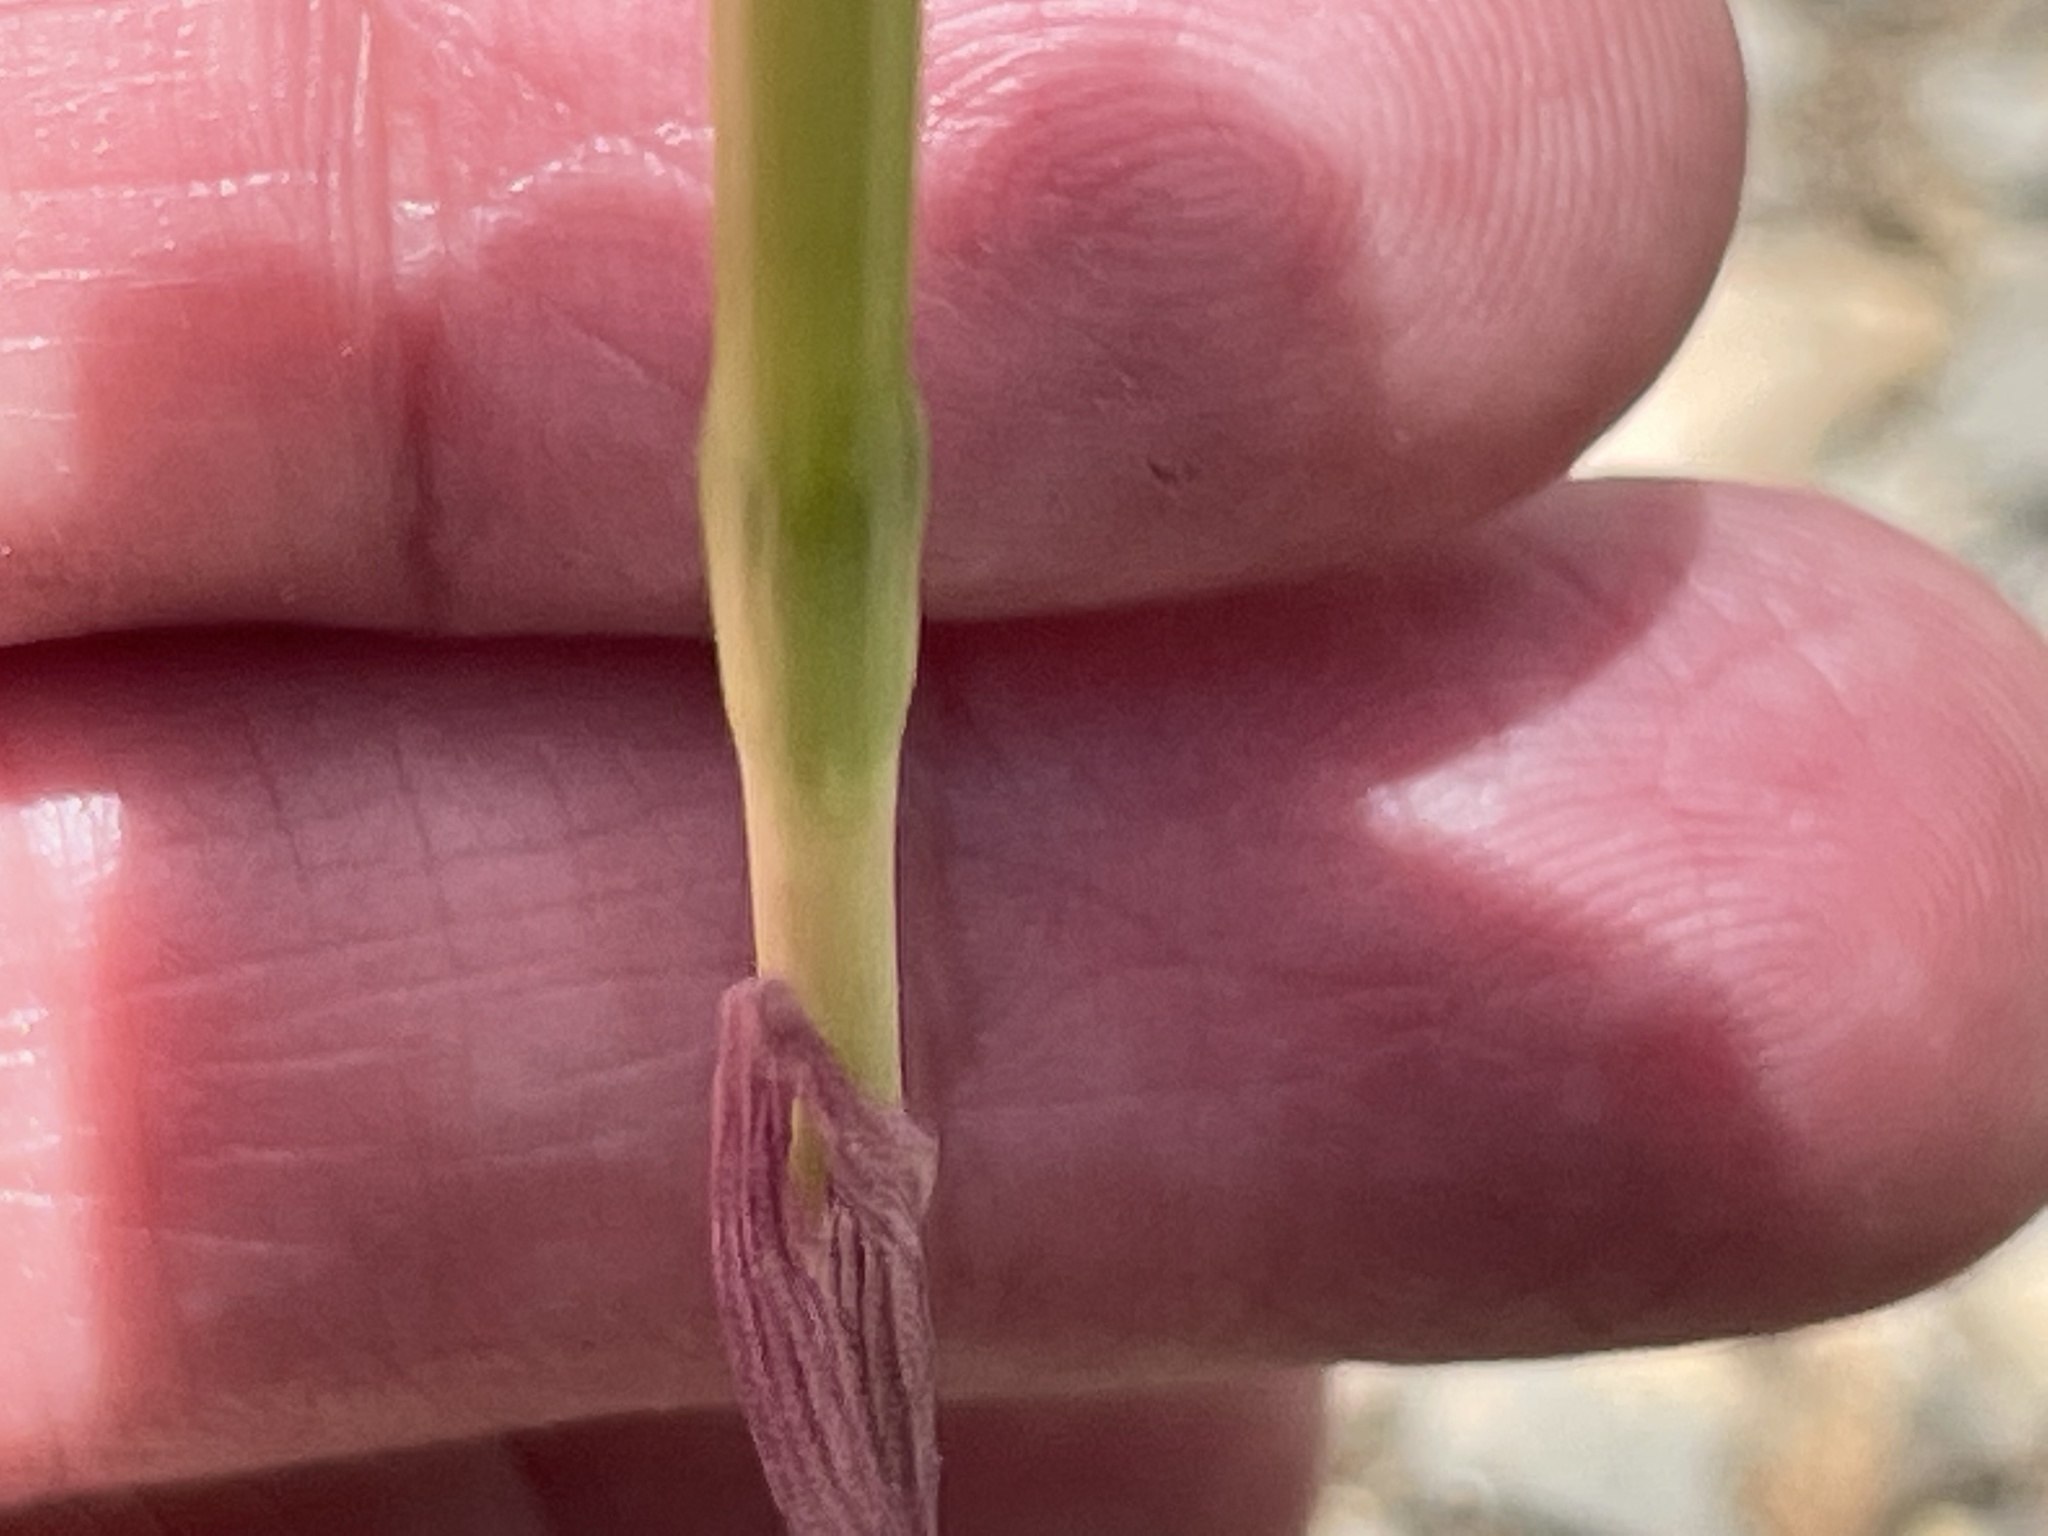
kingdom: Plantae
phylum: Tracheophyta
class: Liliopsida
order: Asparagales
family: Amaryllidaceae
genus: Zephyranthes
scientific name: Zephyranthes morrisclintii
